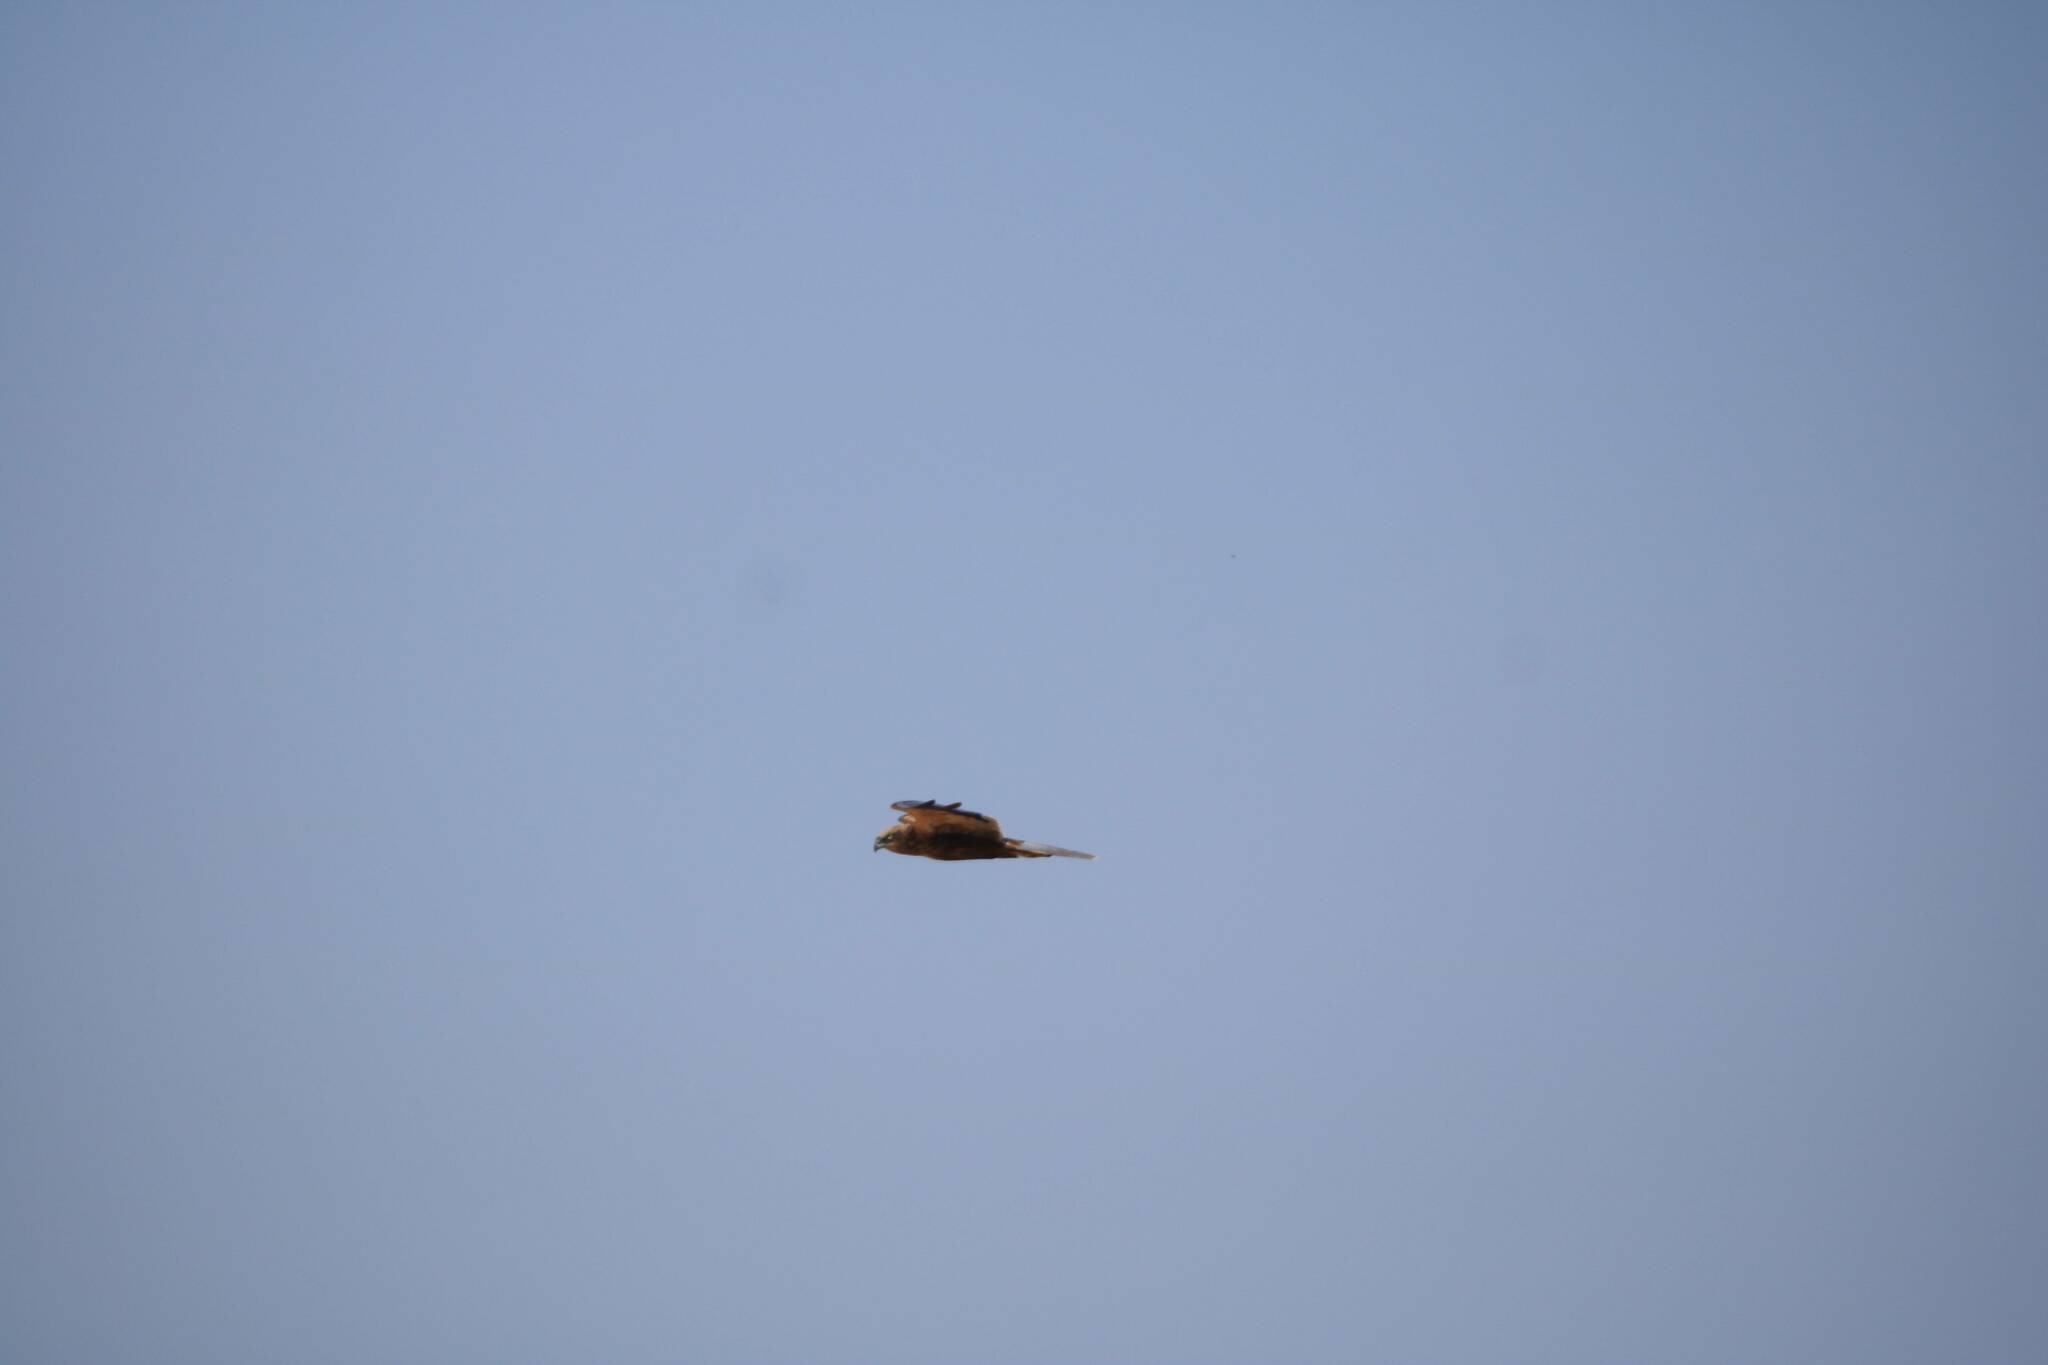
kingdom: Animalia
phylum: Chordata
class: Aves
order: Accipitriformes
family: Accipitridae
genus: Circus
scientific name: Circus aeruginosus
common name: Western marsh harrier
